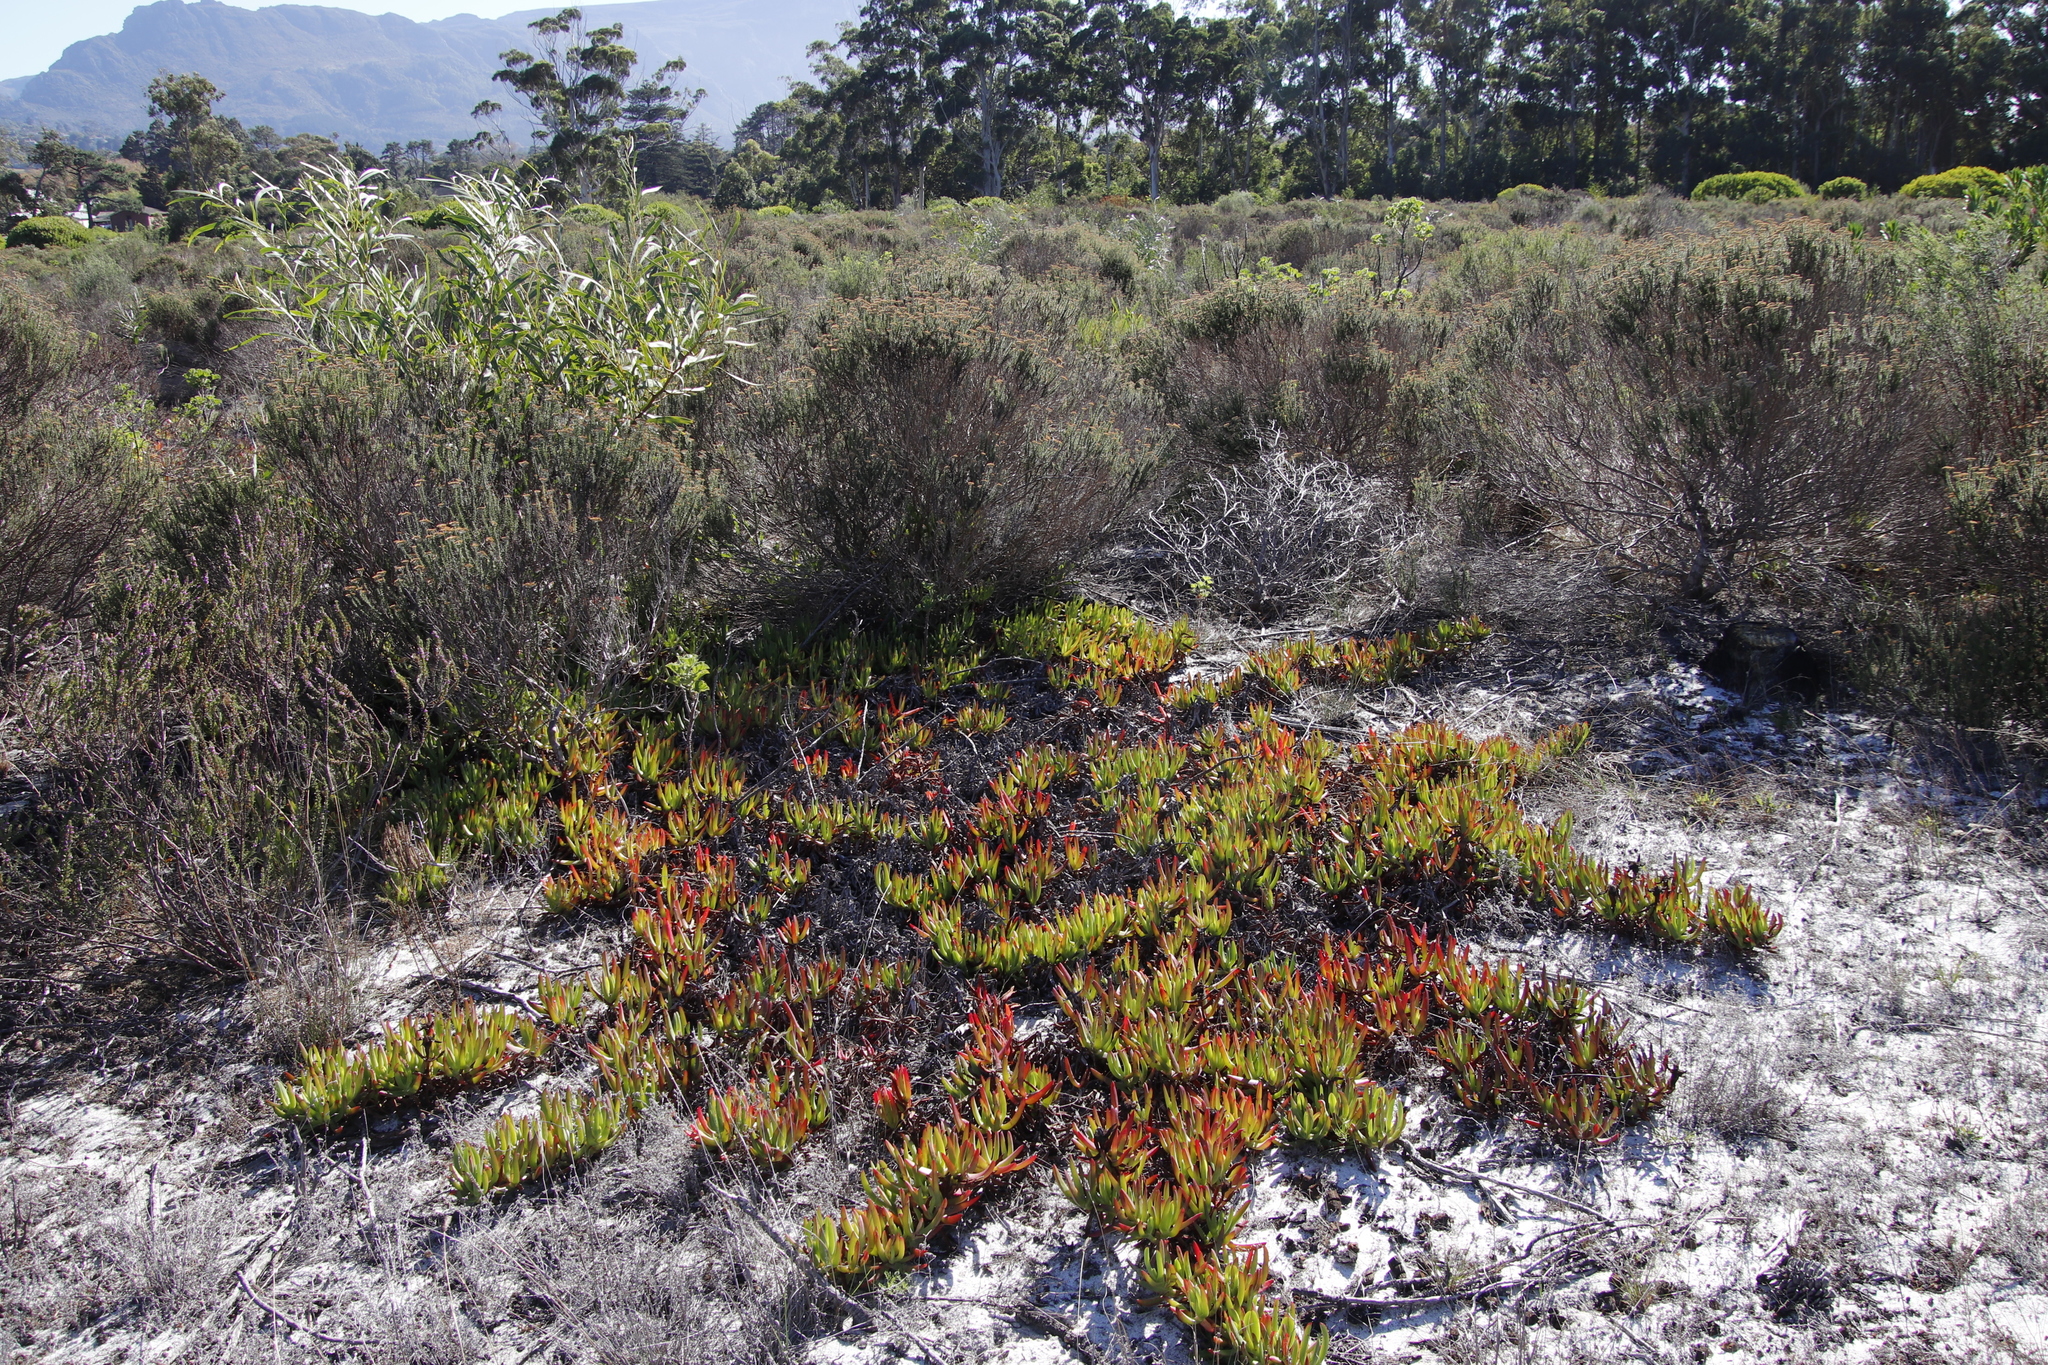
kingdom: Plantae
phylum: Tracheophyta
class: Magnoliopsida
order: Caryophyllales
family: Aizoaceae
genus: Carpobrotus
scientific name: Carpobrotus edulis
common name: Hottentot-fig
